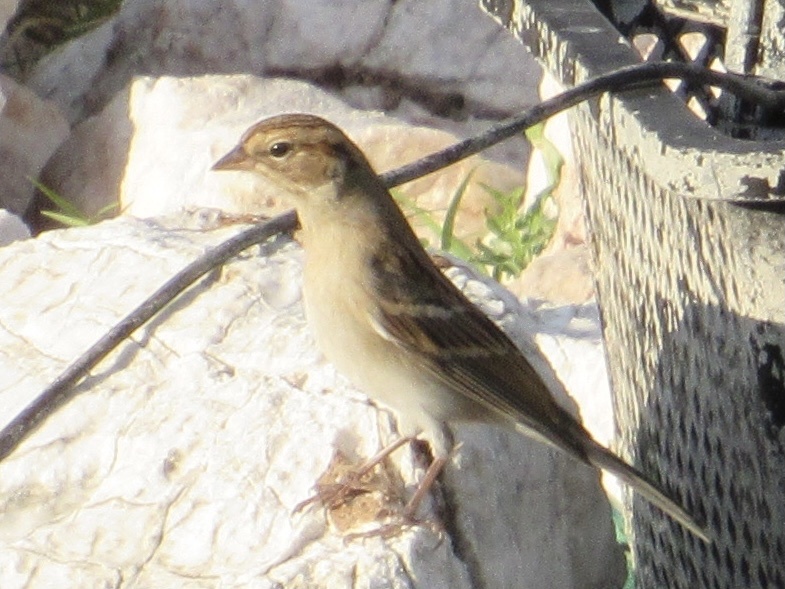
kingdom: Animalia
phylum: Chordata
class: Aves
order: Passeriformes
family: Passerellidae
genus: Spizella
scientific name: Spizella passerina
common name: Chipping sparrow
